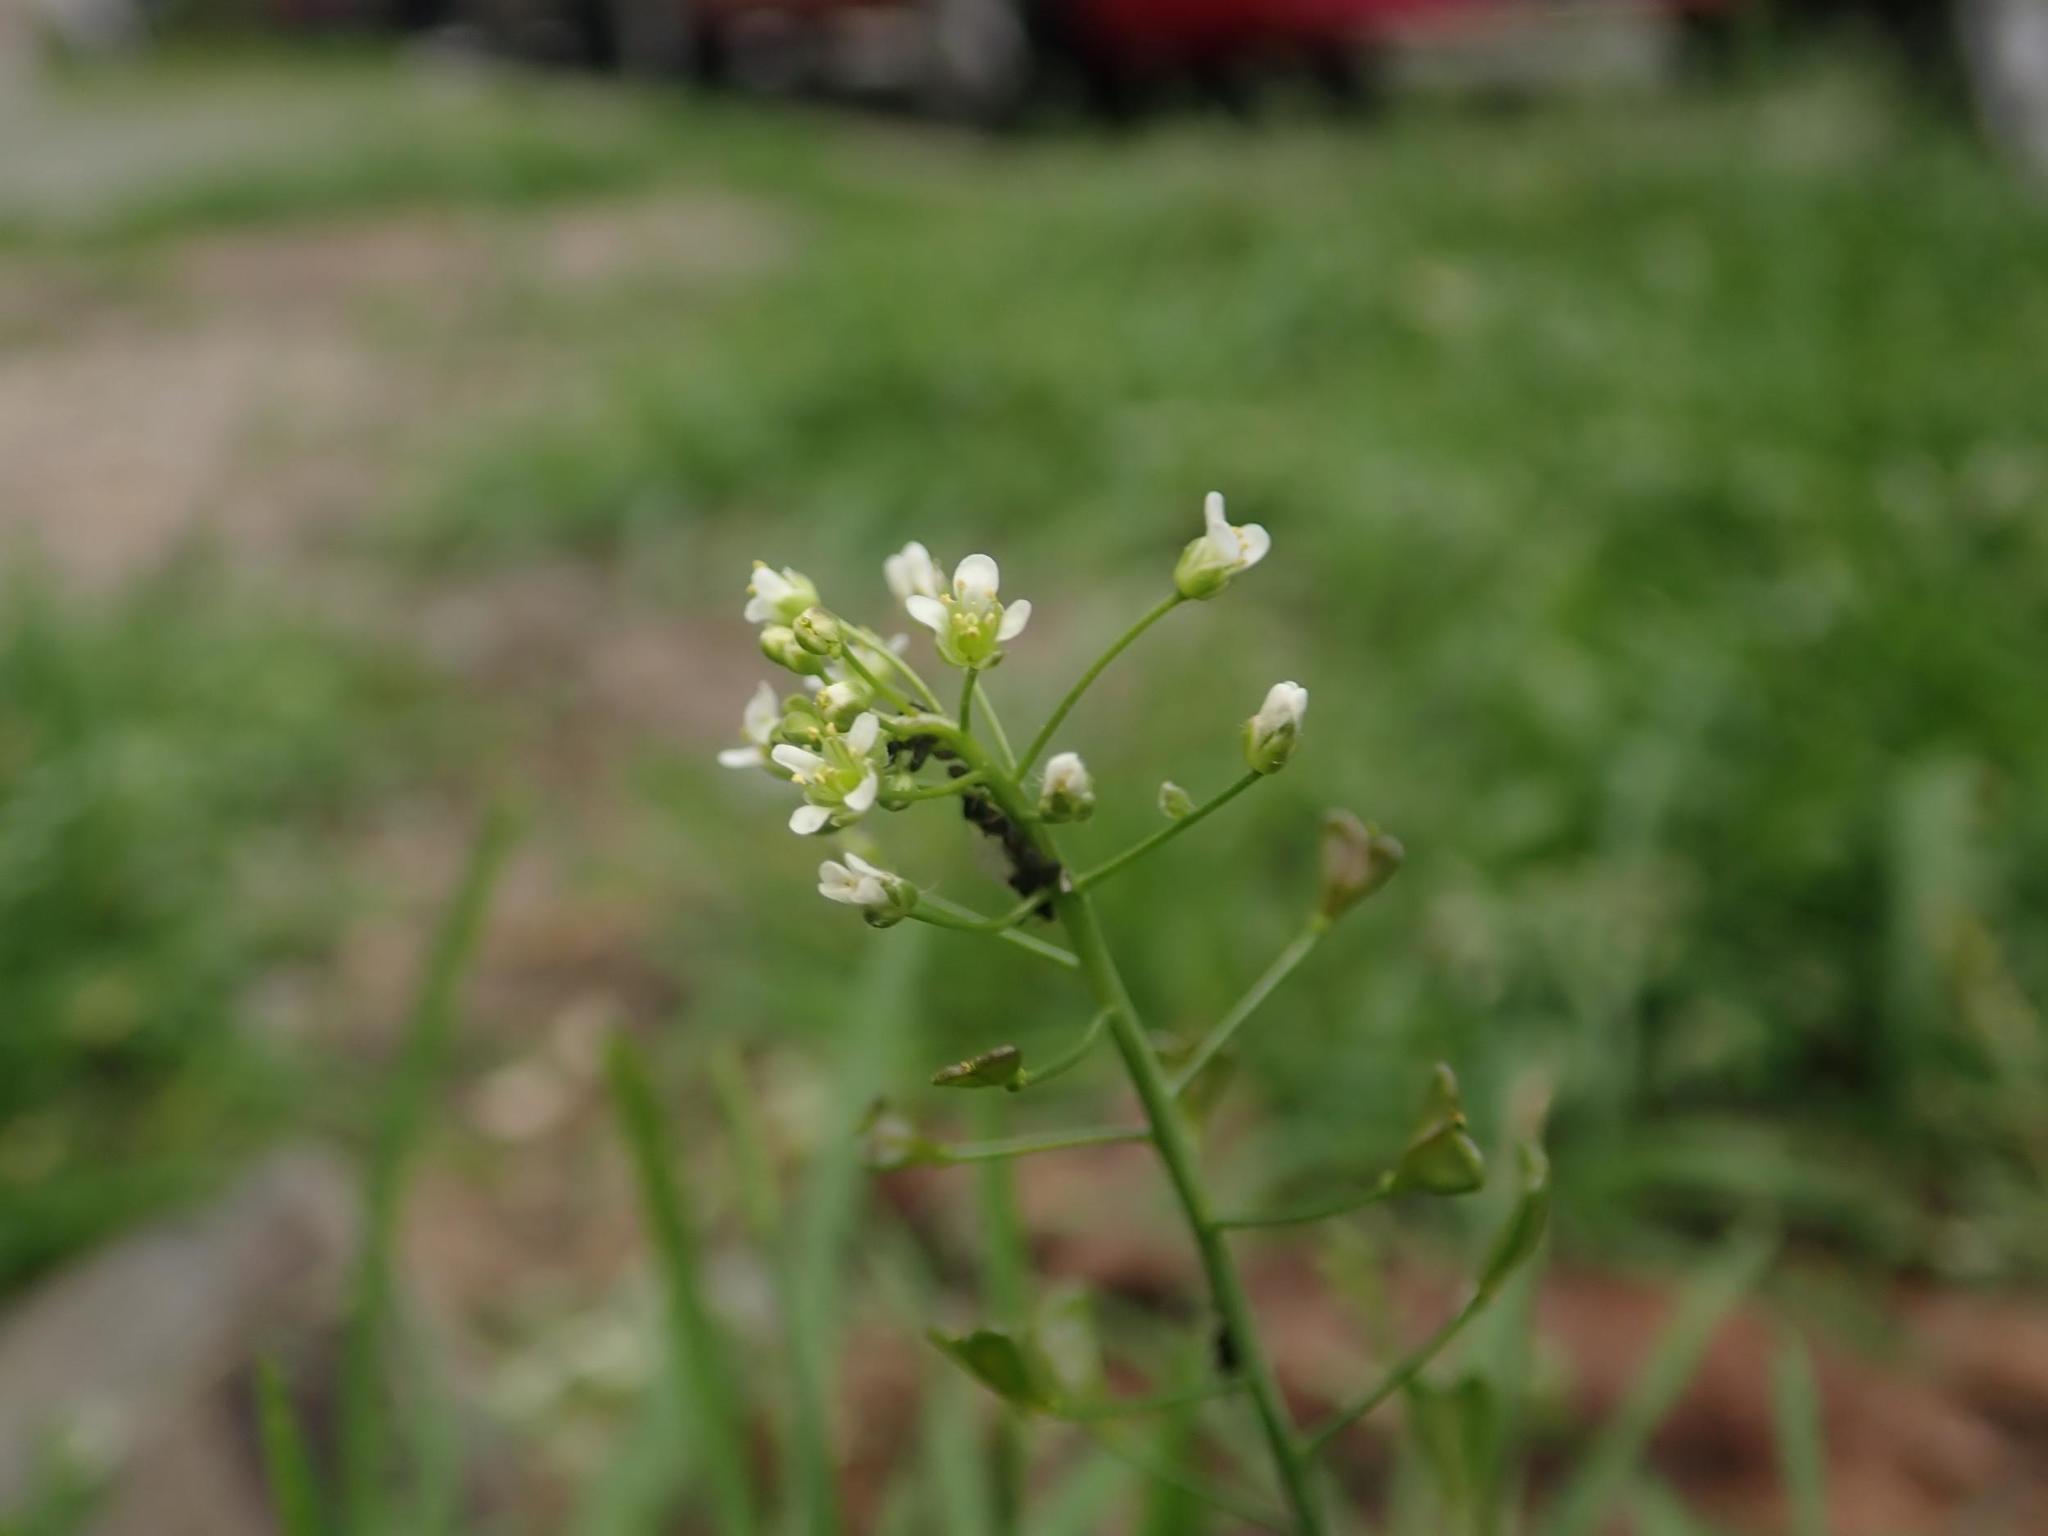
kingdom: Plantae
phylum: Tracheophyta
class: Magnoliopsida
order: Brassicales
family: Brassicaceae
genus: Capsella
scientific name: Capsella bursa-pastoris
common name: Shepherd's purse
